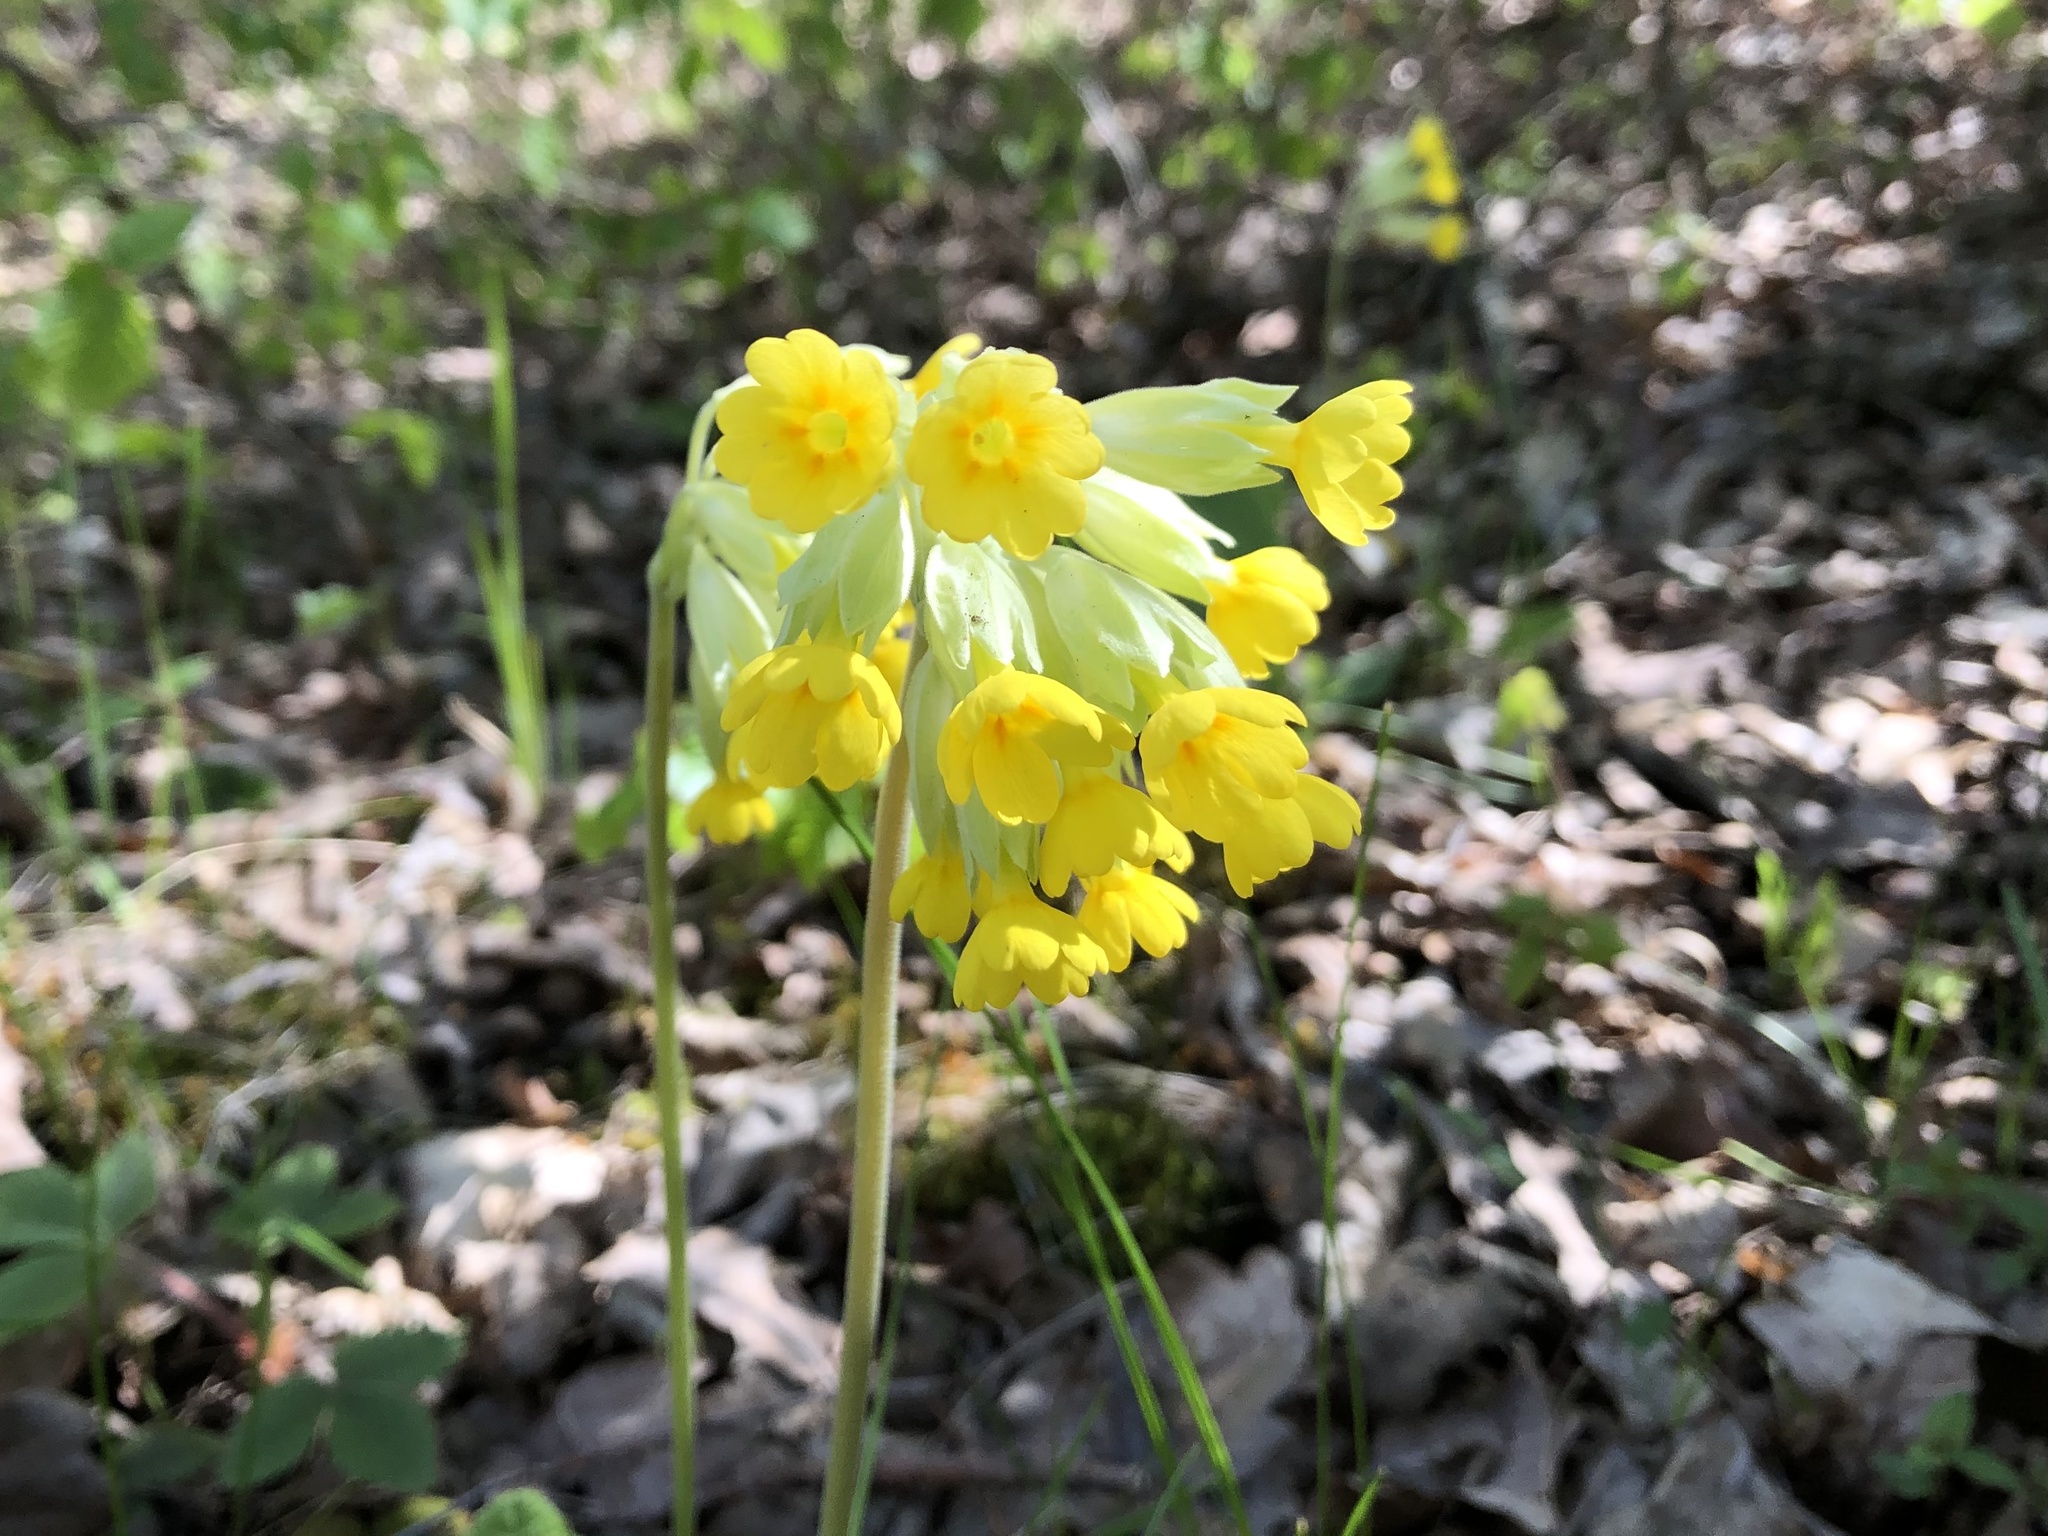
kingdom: Plantae
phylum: Tracheophyta
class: Magnoliopsida
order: Ericales
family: Primulaceae
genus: Primula
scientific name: Primula veris
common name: Cowslip
